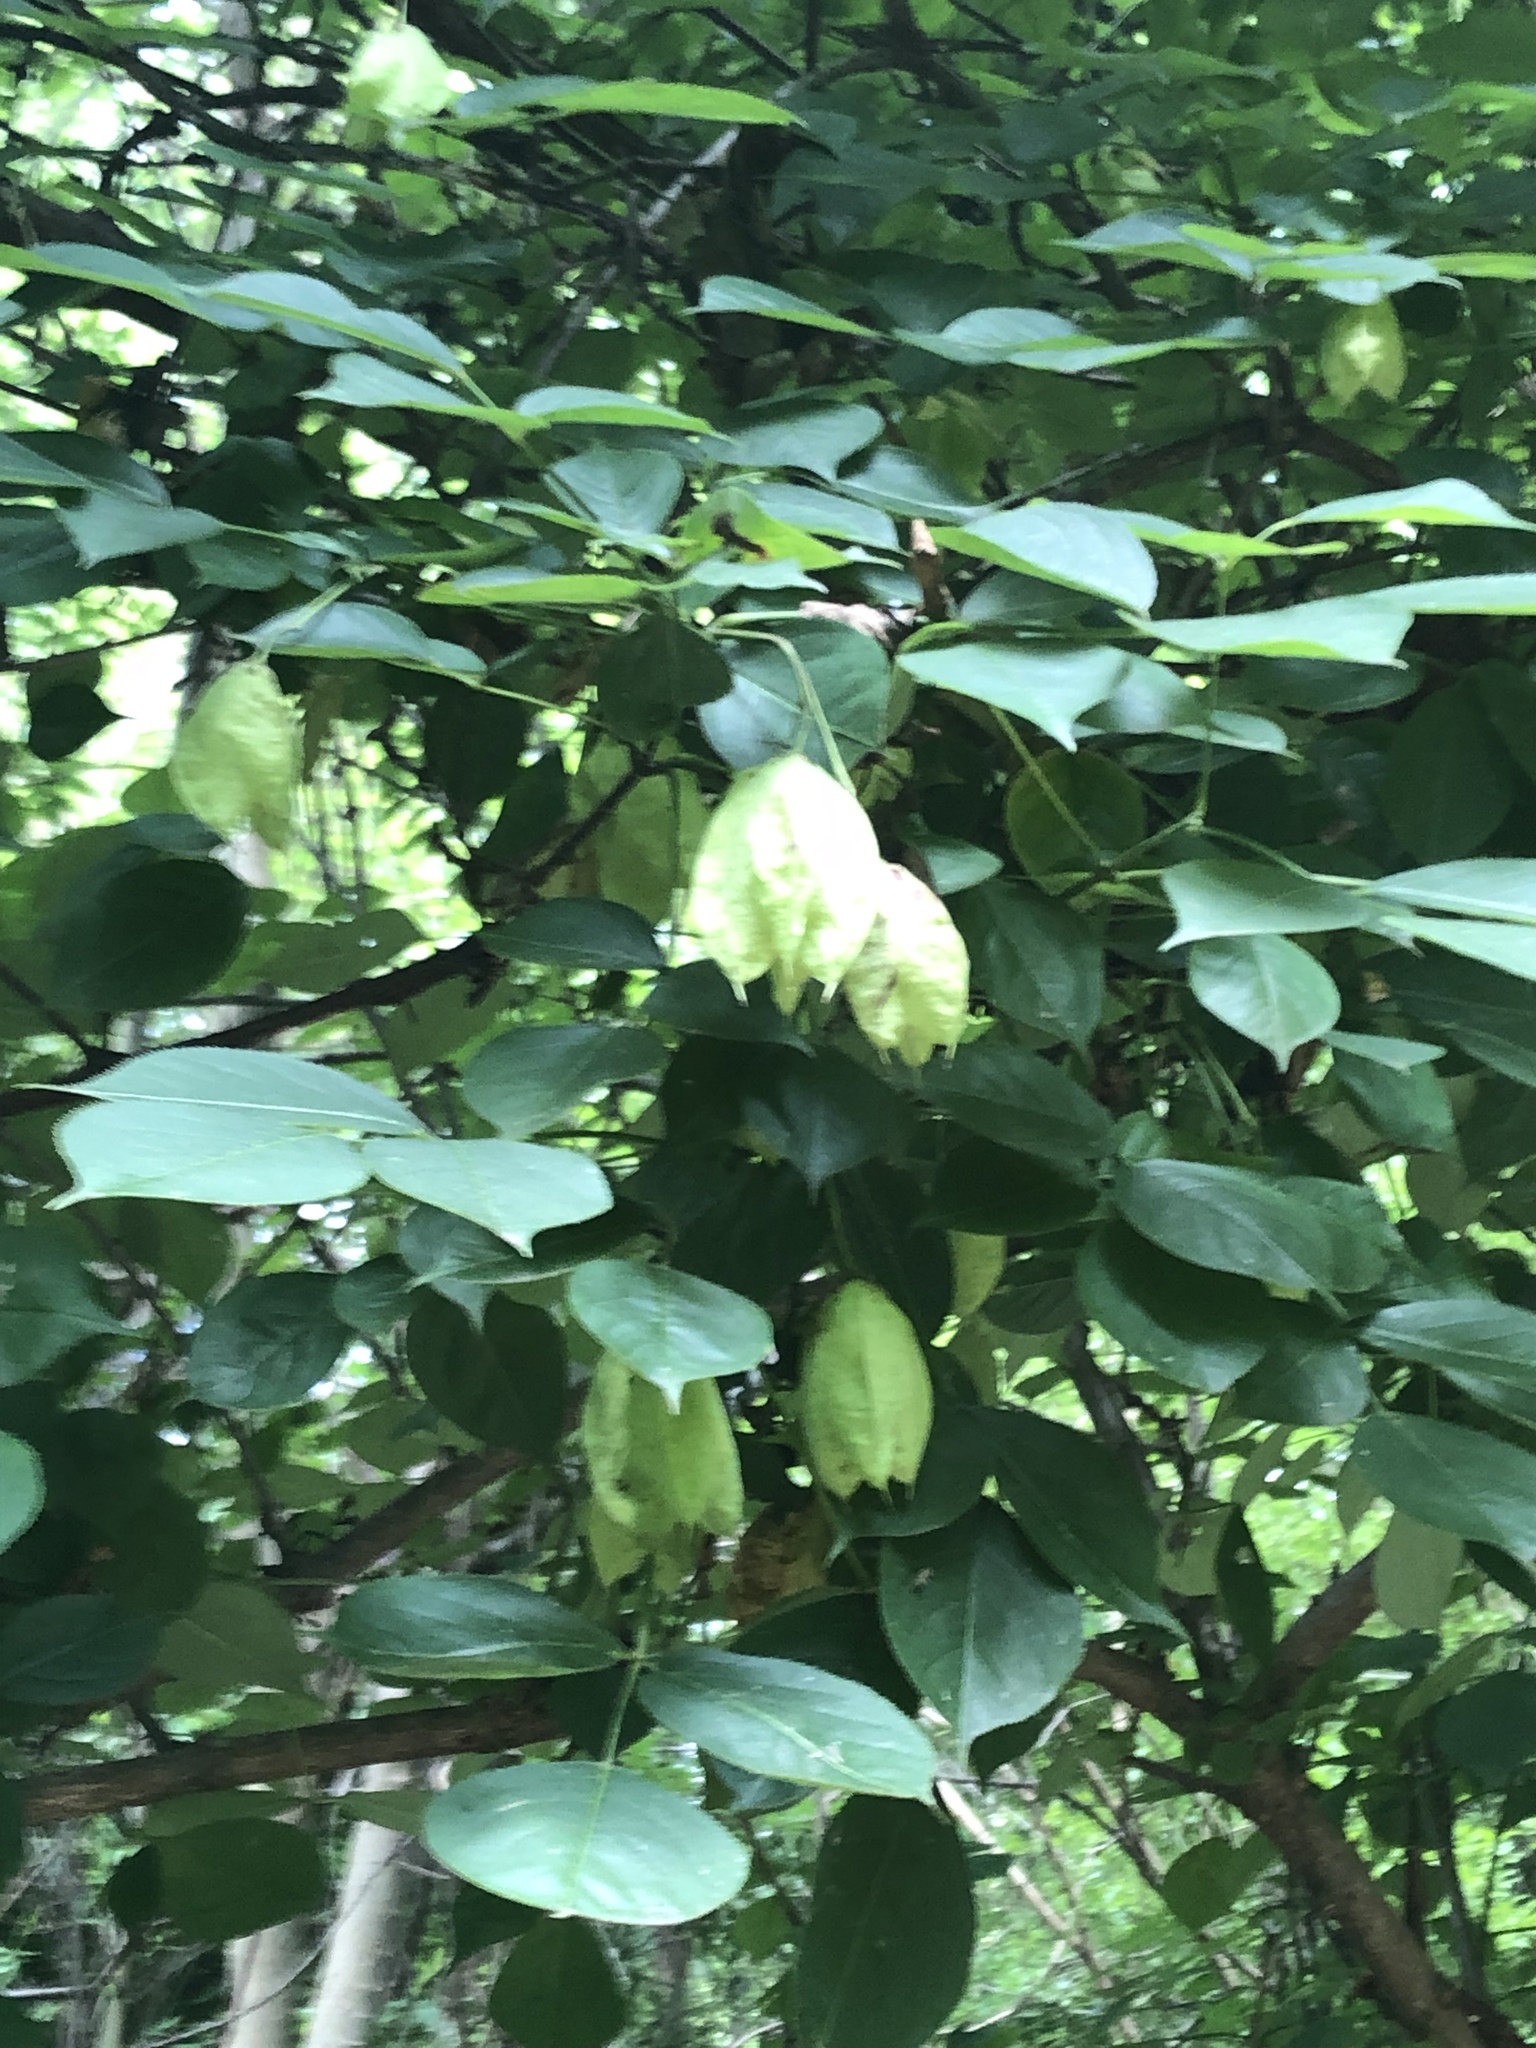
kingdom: Plantae
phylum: Tracheophyta
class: Magnoliopsida
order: Crossosomatales
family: Staphyleaceae
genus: Staphylea
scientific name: Staphylea trifolia
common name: American bladdernut
